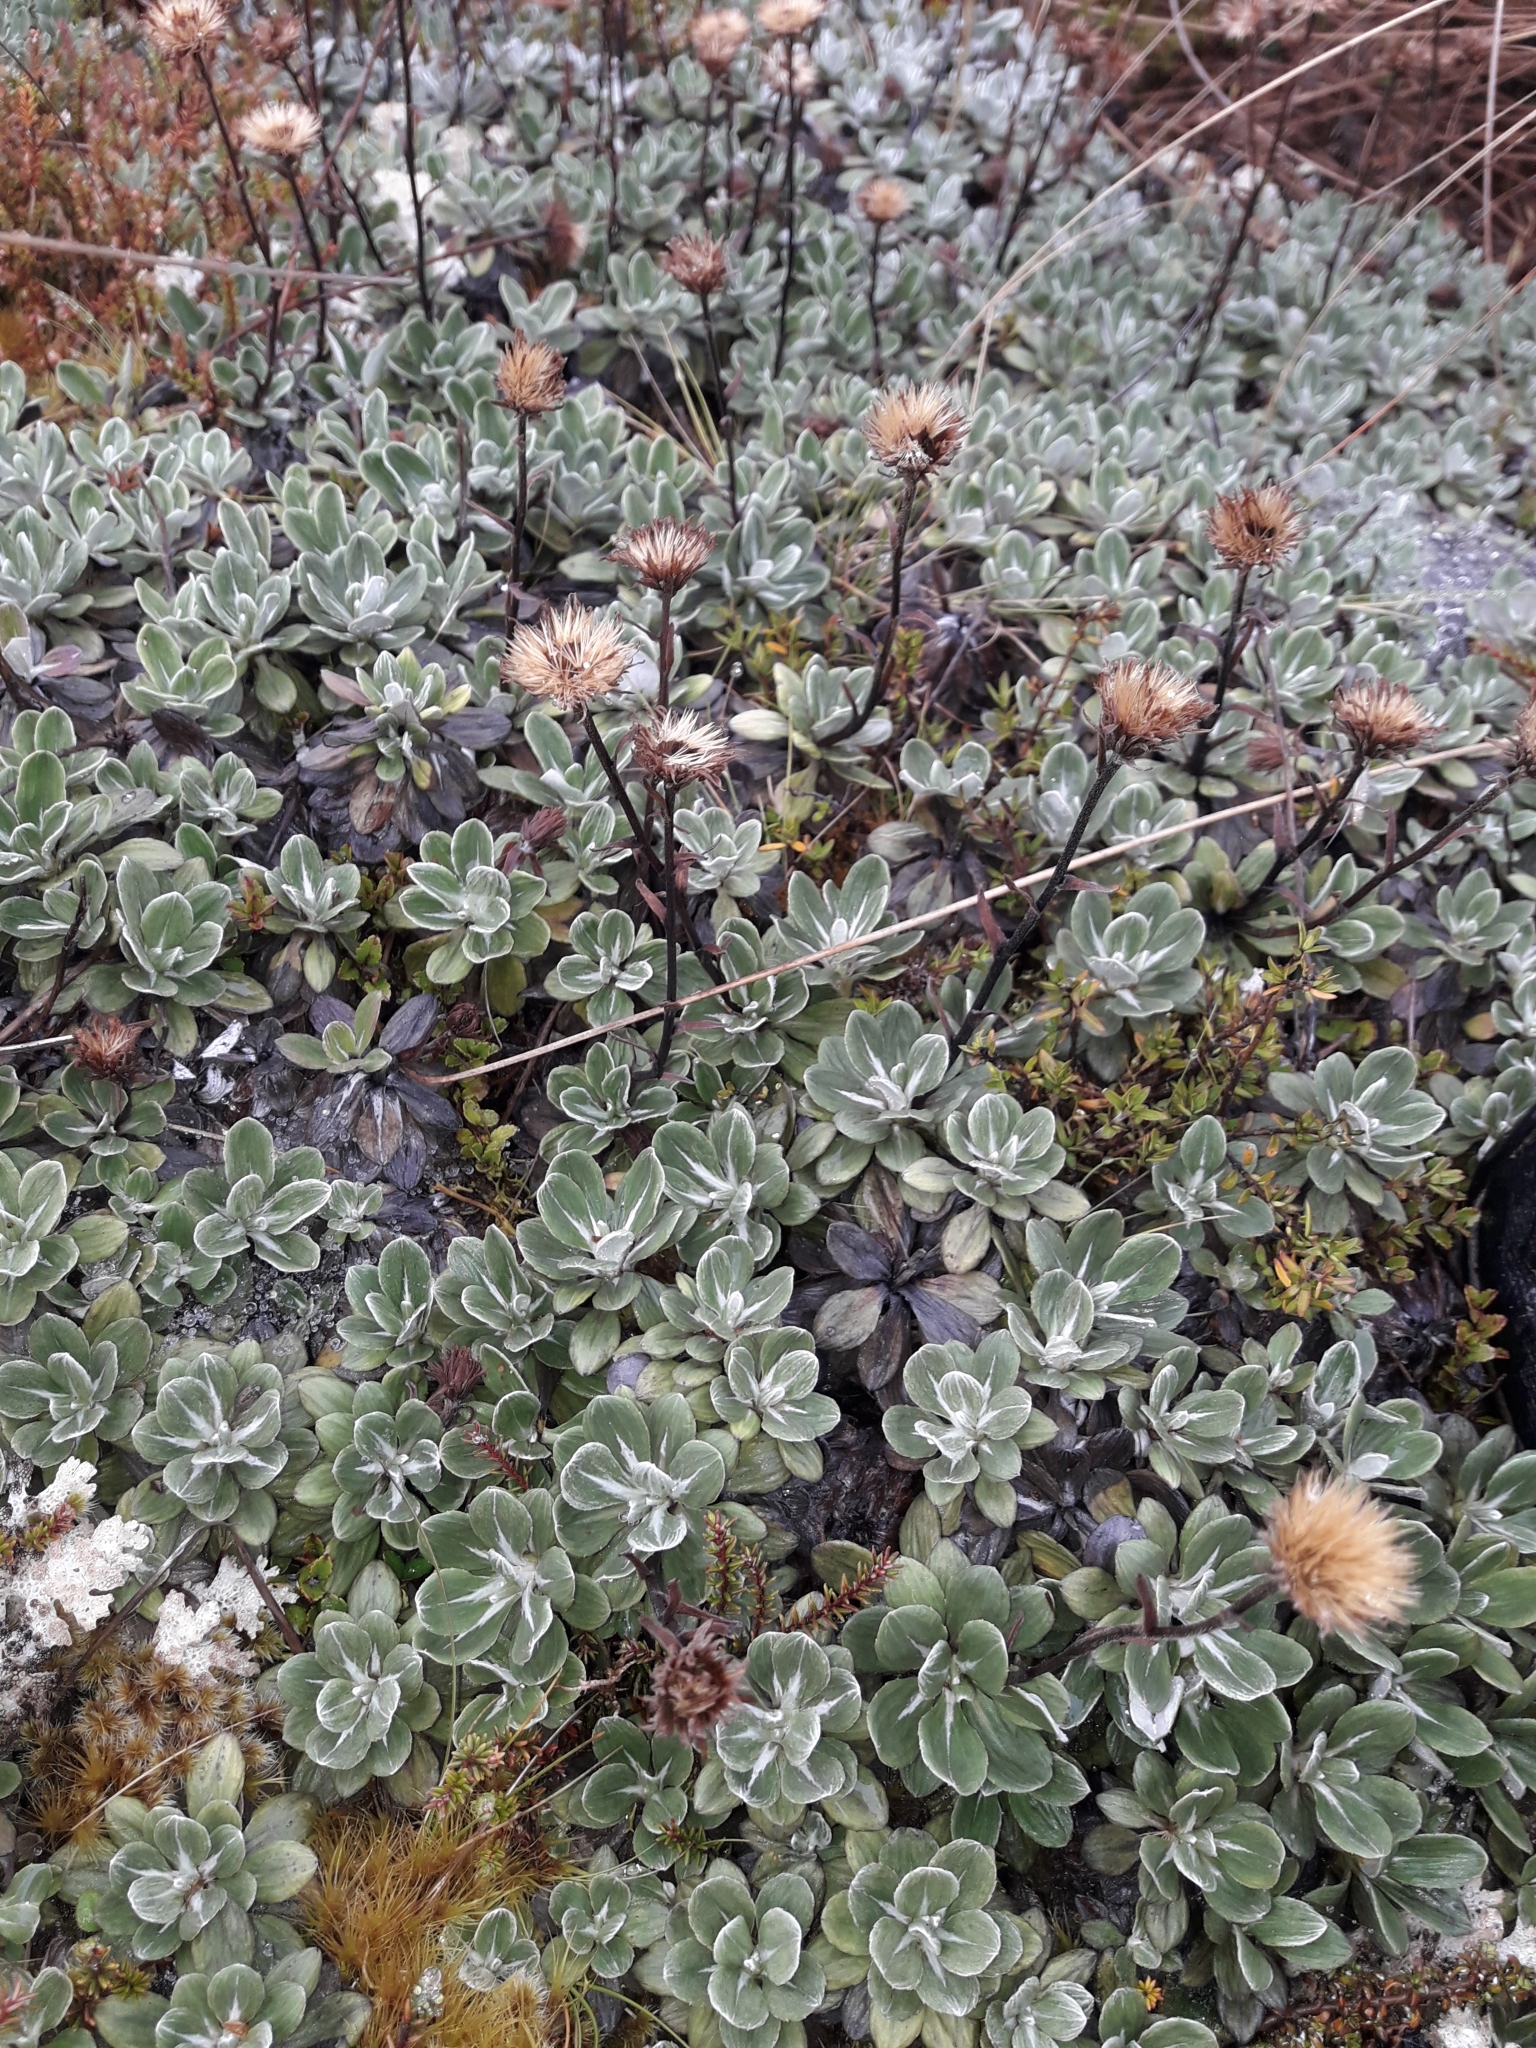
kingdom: Plantae
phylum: Tracheophyta
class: Magnoliopsida
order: Asterales
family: Asteraceae
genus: Celmisia
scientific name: Celmisia discolor
